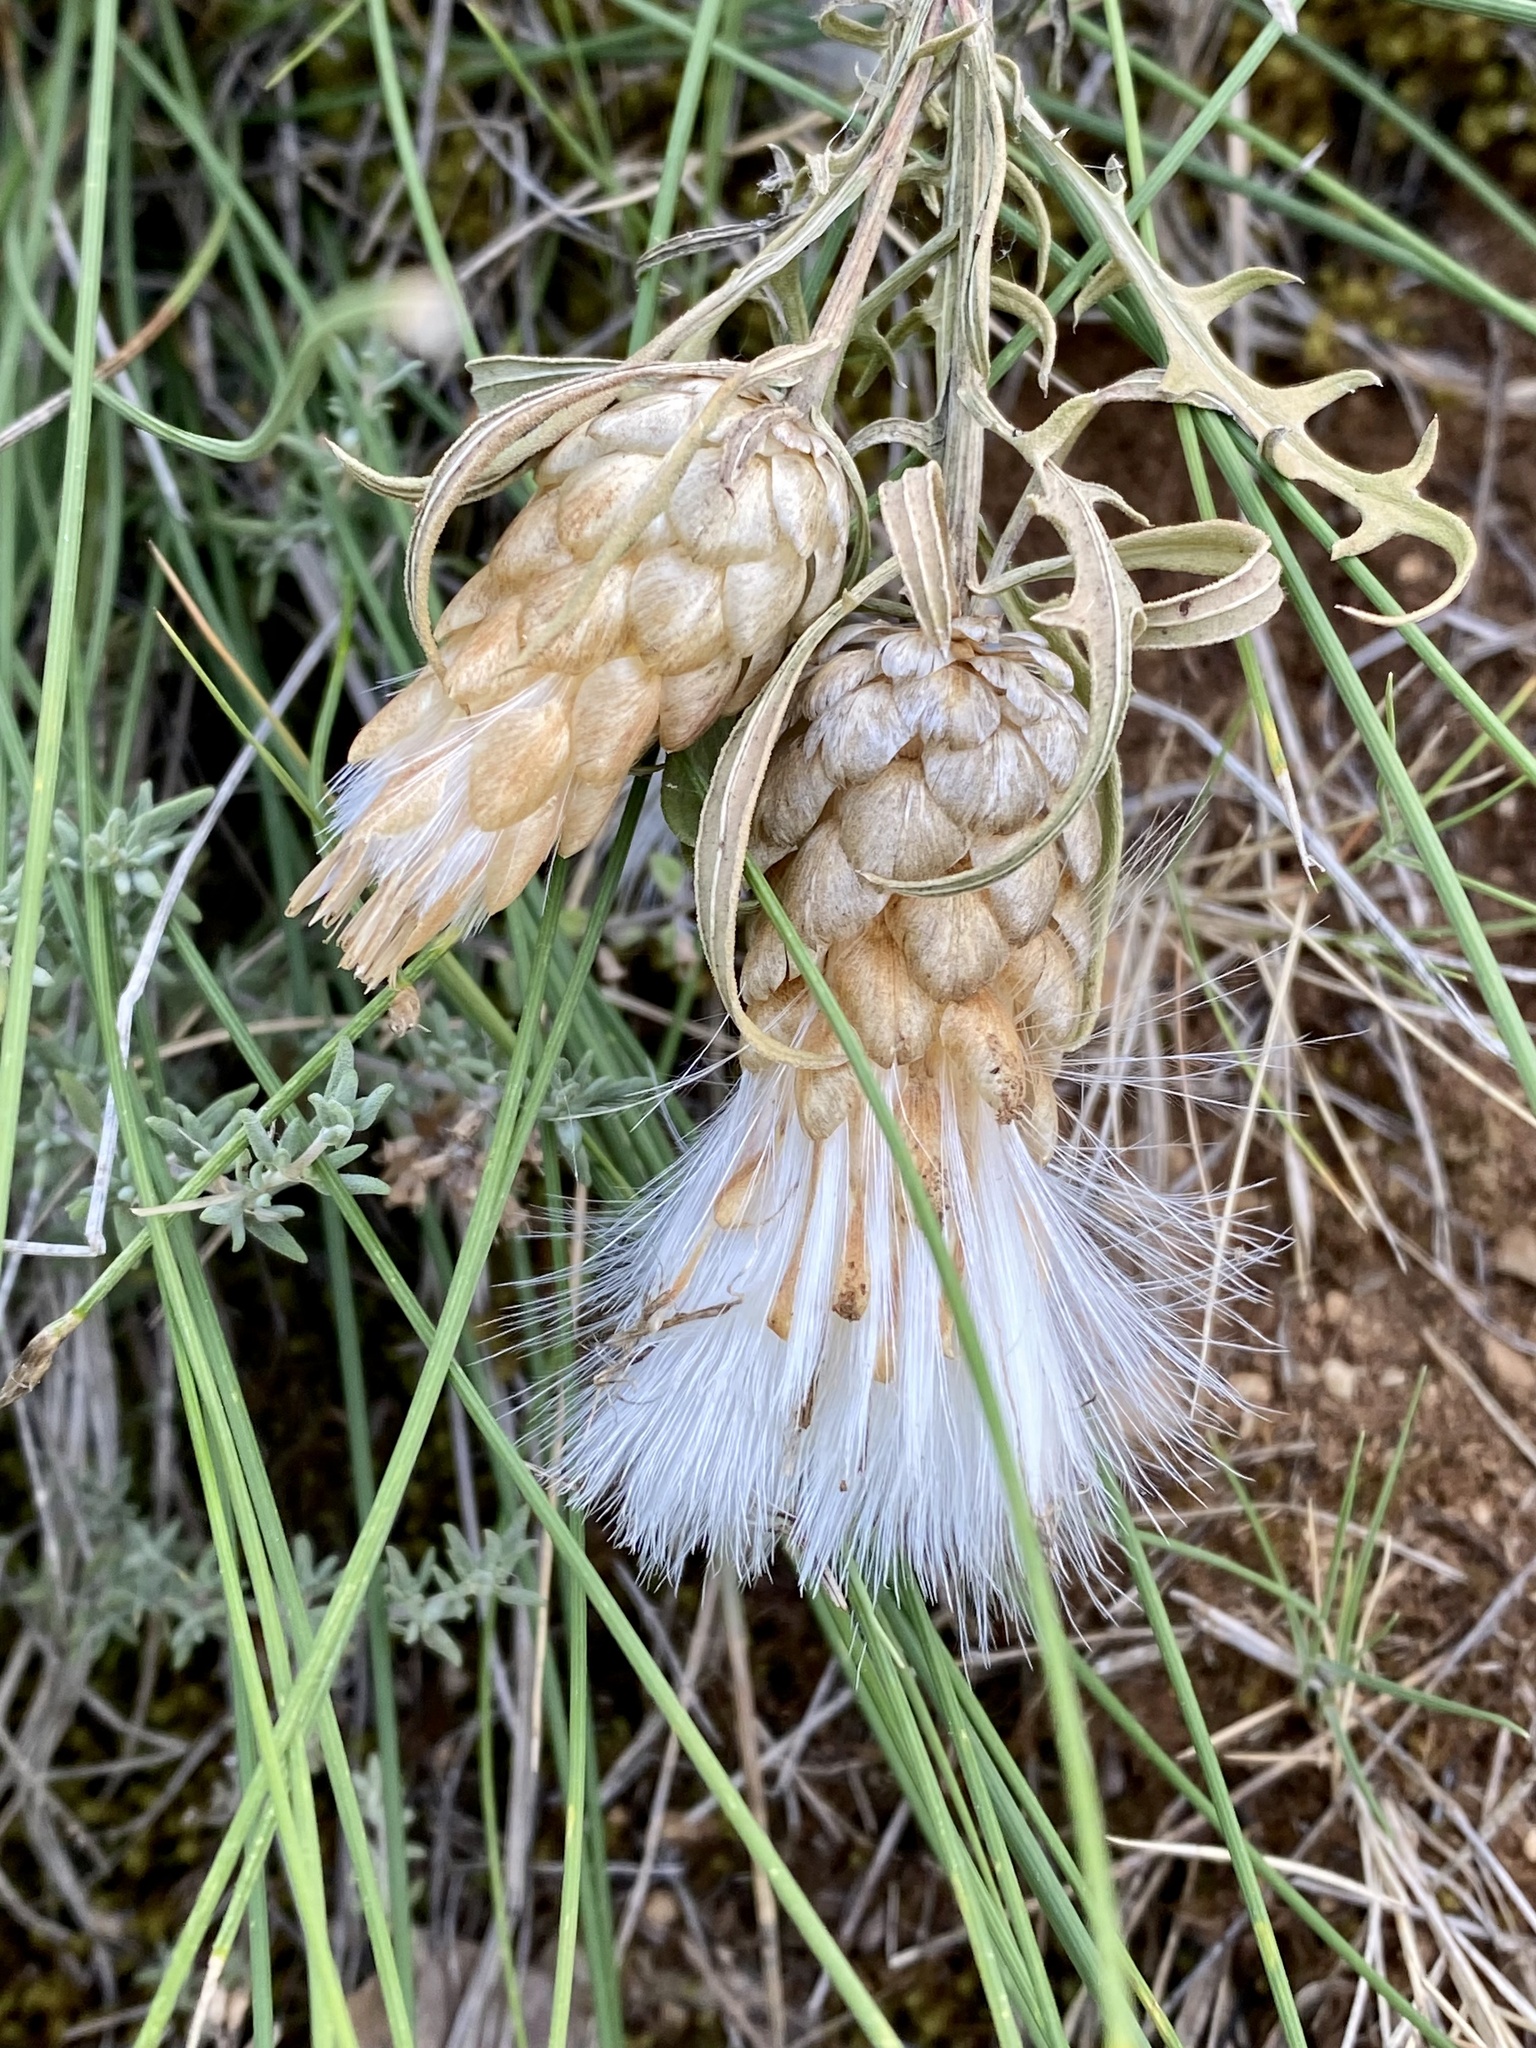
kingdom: Plantae
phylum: Tracheophyta
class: Magnoliopsida
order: Asterales
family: Asteraceae
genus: Leuzea
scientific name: Leuzea conifera
